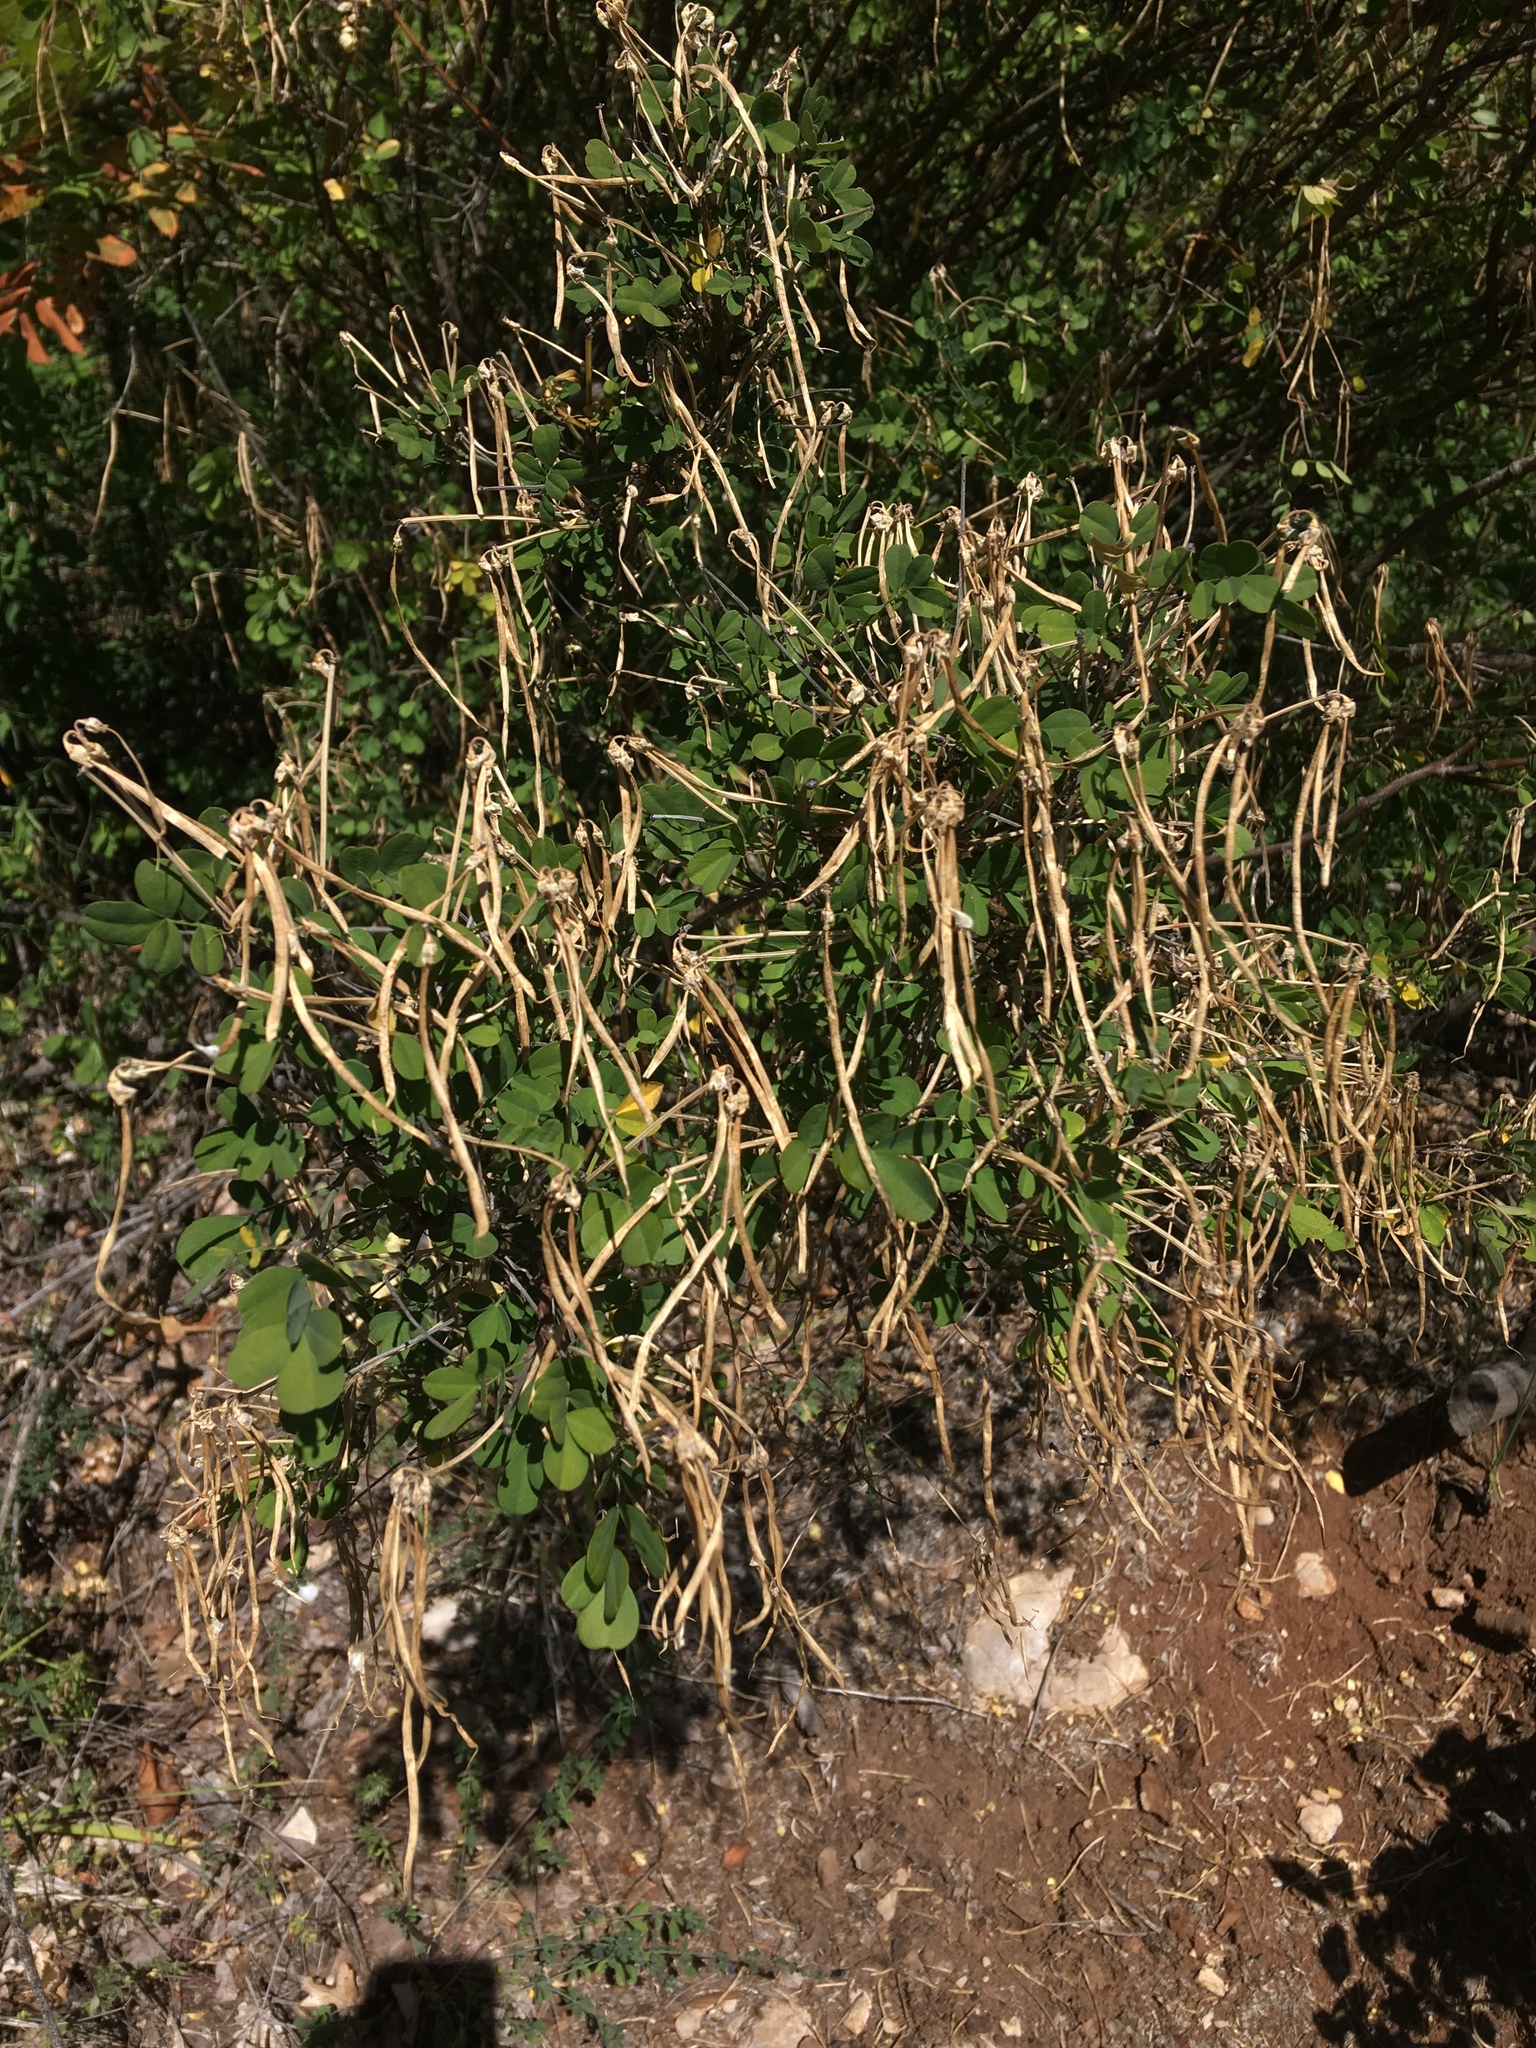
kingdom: Plantae
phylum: Tracheophyta
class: Magnoliopsida
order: Fabales
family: Fabaceae
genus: Hippocrepis
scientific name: Hippocrepis emerus
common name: Scorpion senna
